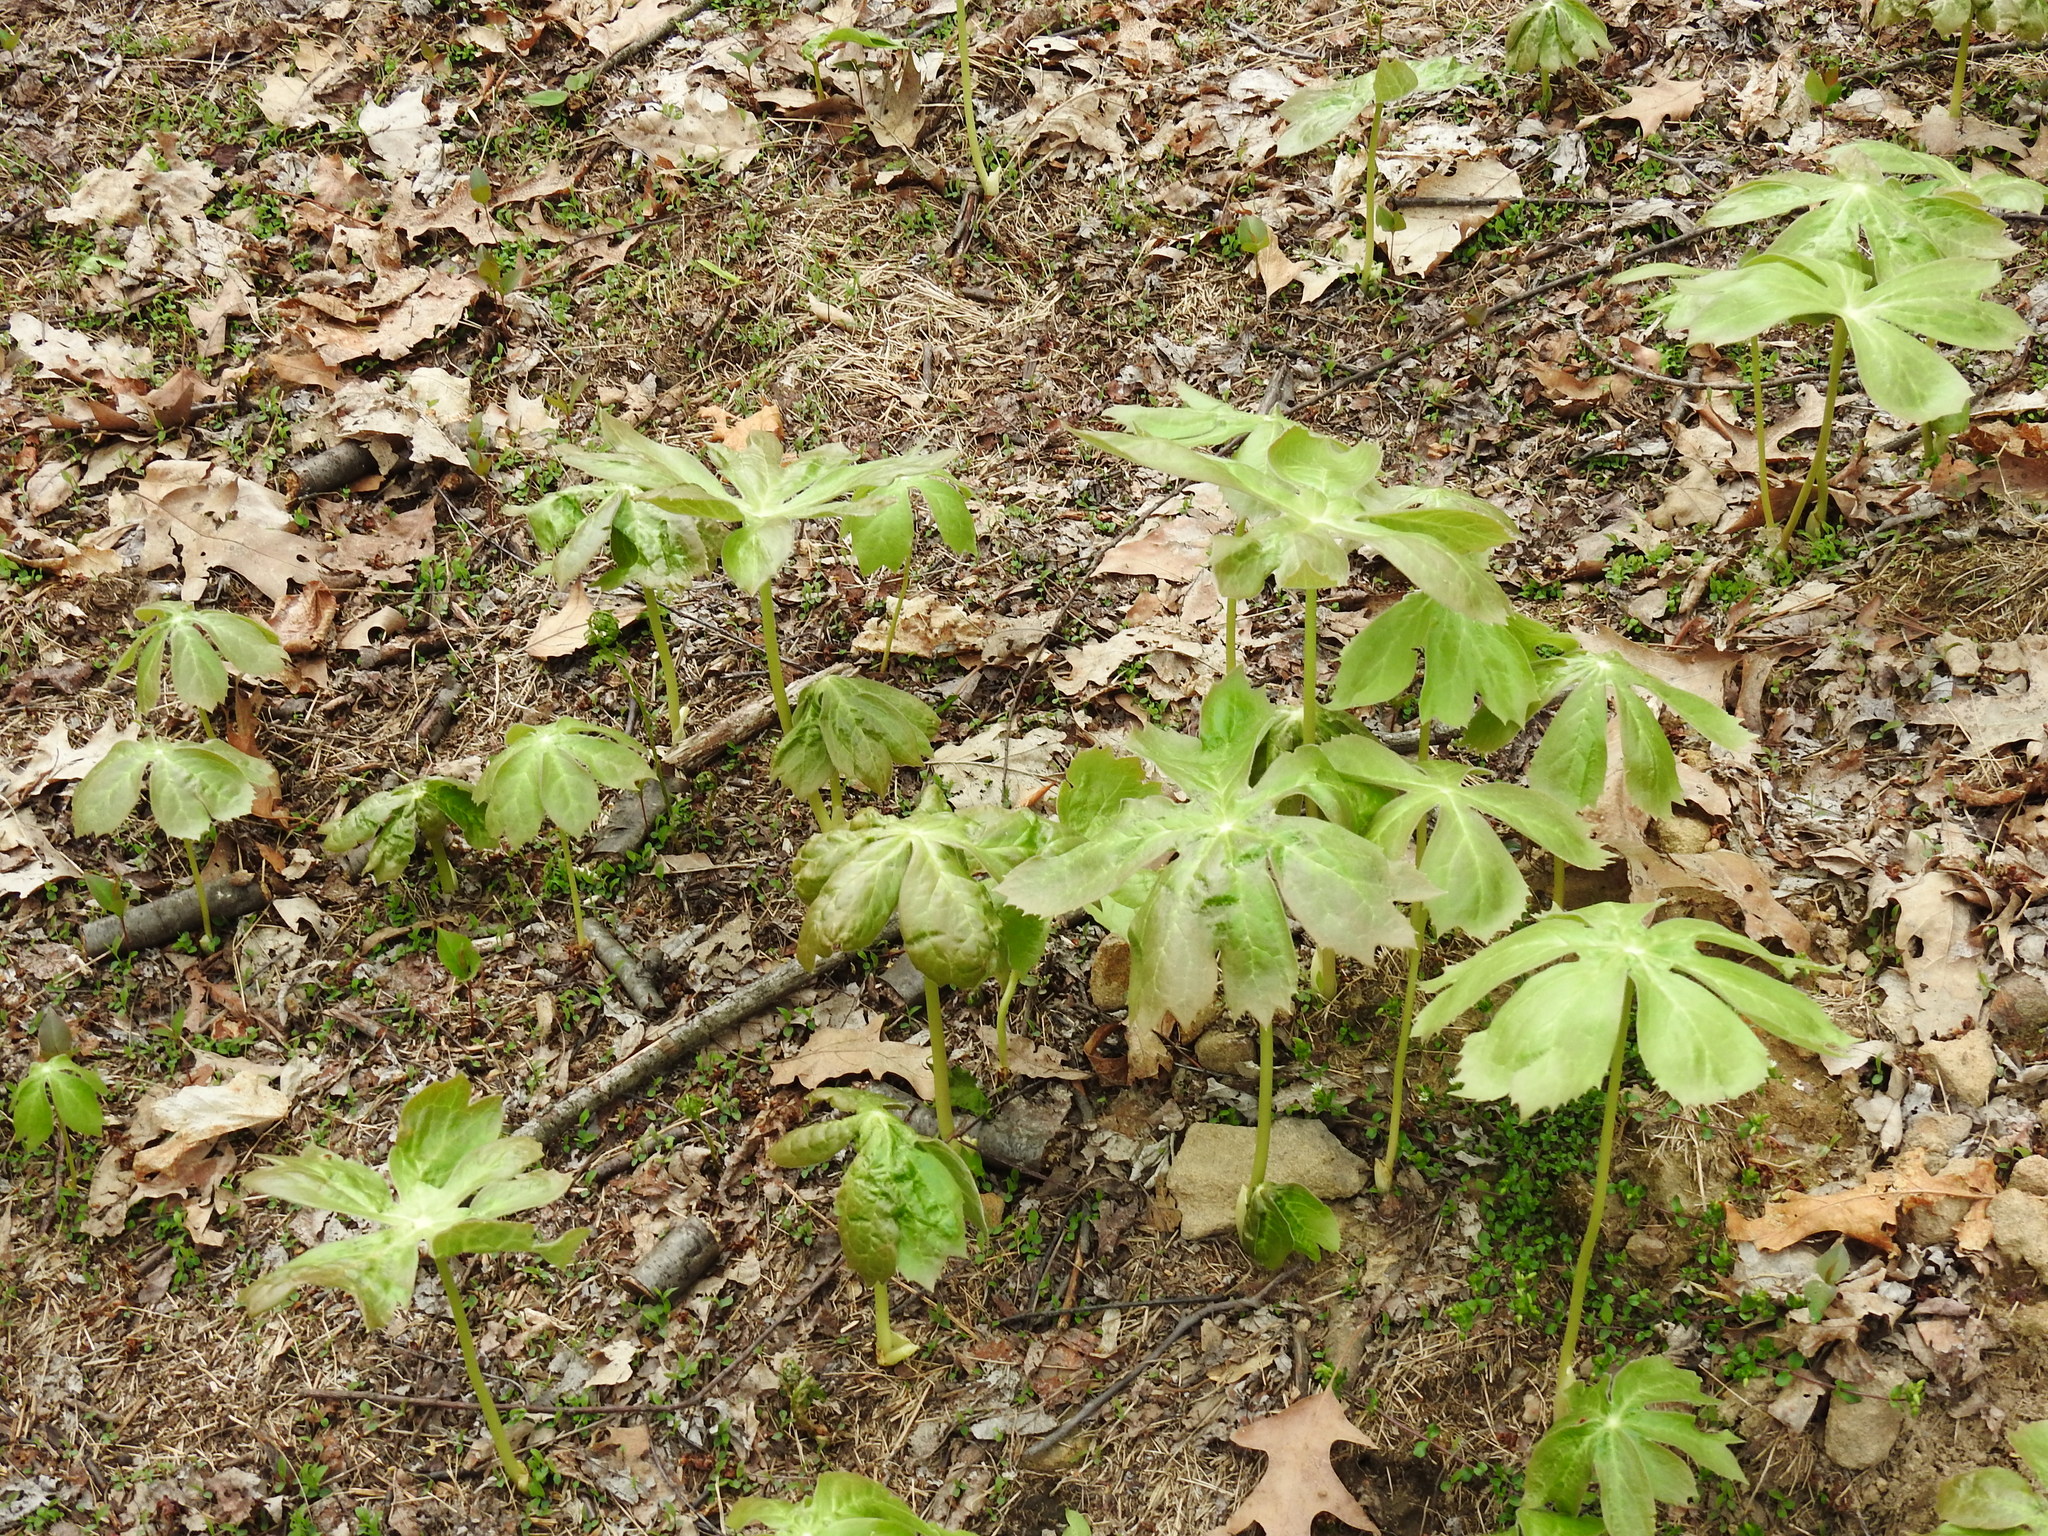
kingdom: Plantae
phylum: Tracheophyta
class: Magnoliopsida
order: Ranunculales
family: Berberidaceae
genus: Podophyllum
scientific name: Podophyllum peltatum
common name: Wild mandrake
